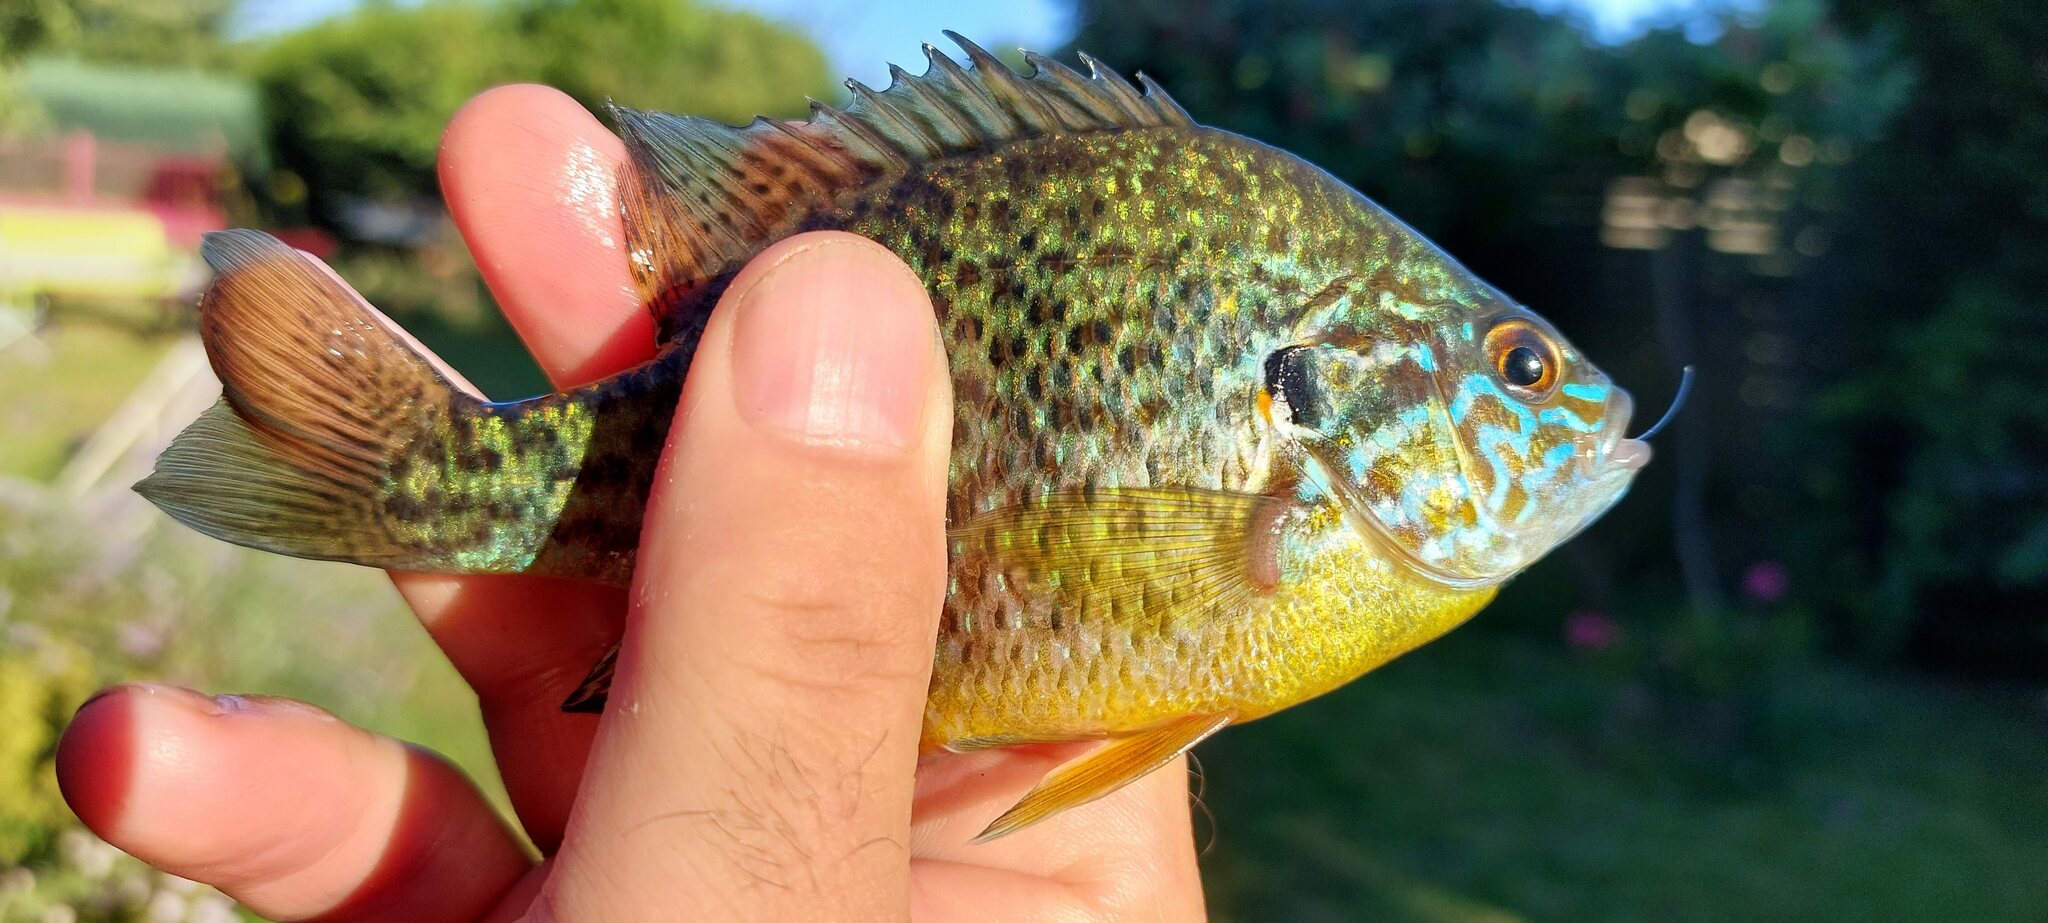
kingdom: Animalia
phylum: Chordata
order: Perciformes
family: Centrarchidae
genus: Lepomis
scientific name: Lepomis gibbosus
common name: Pumpkinseed
